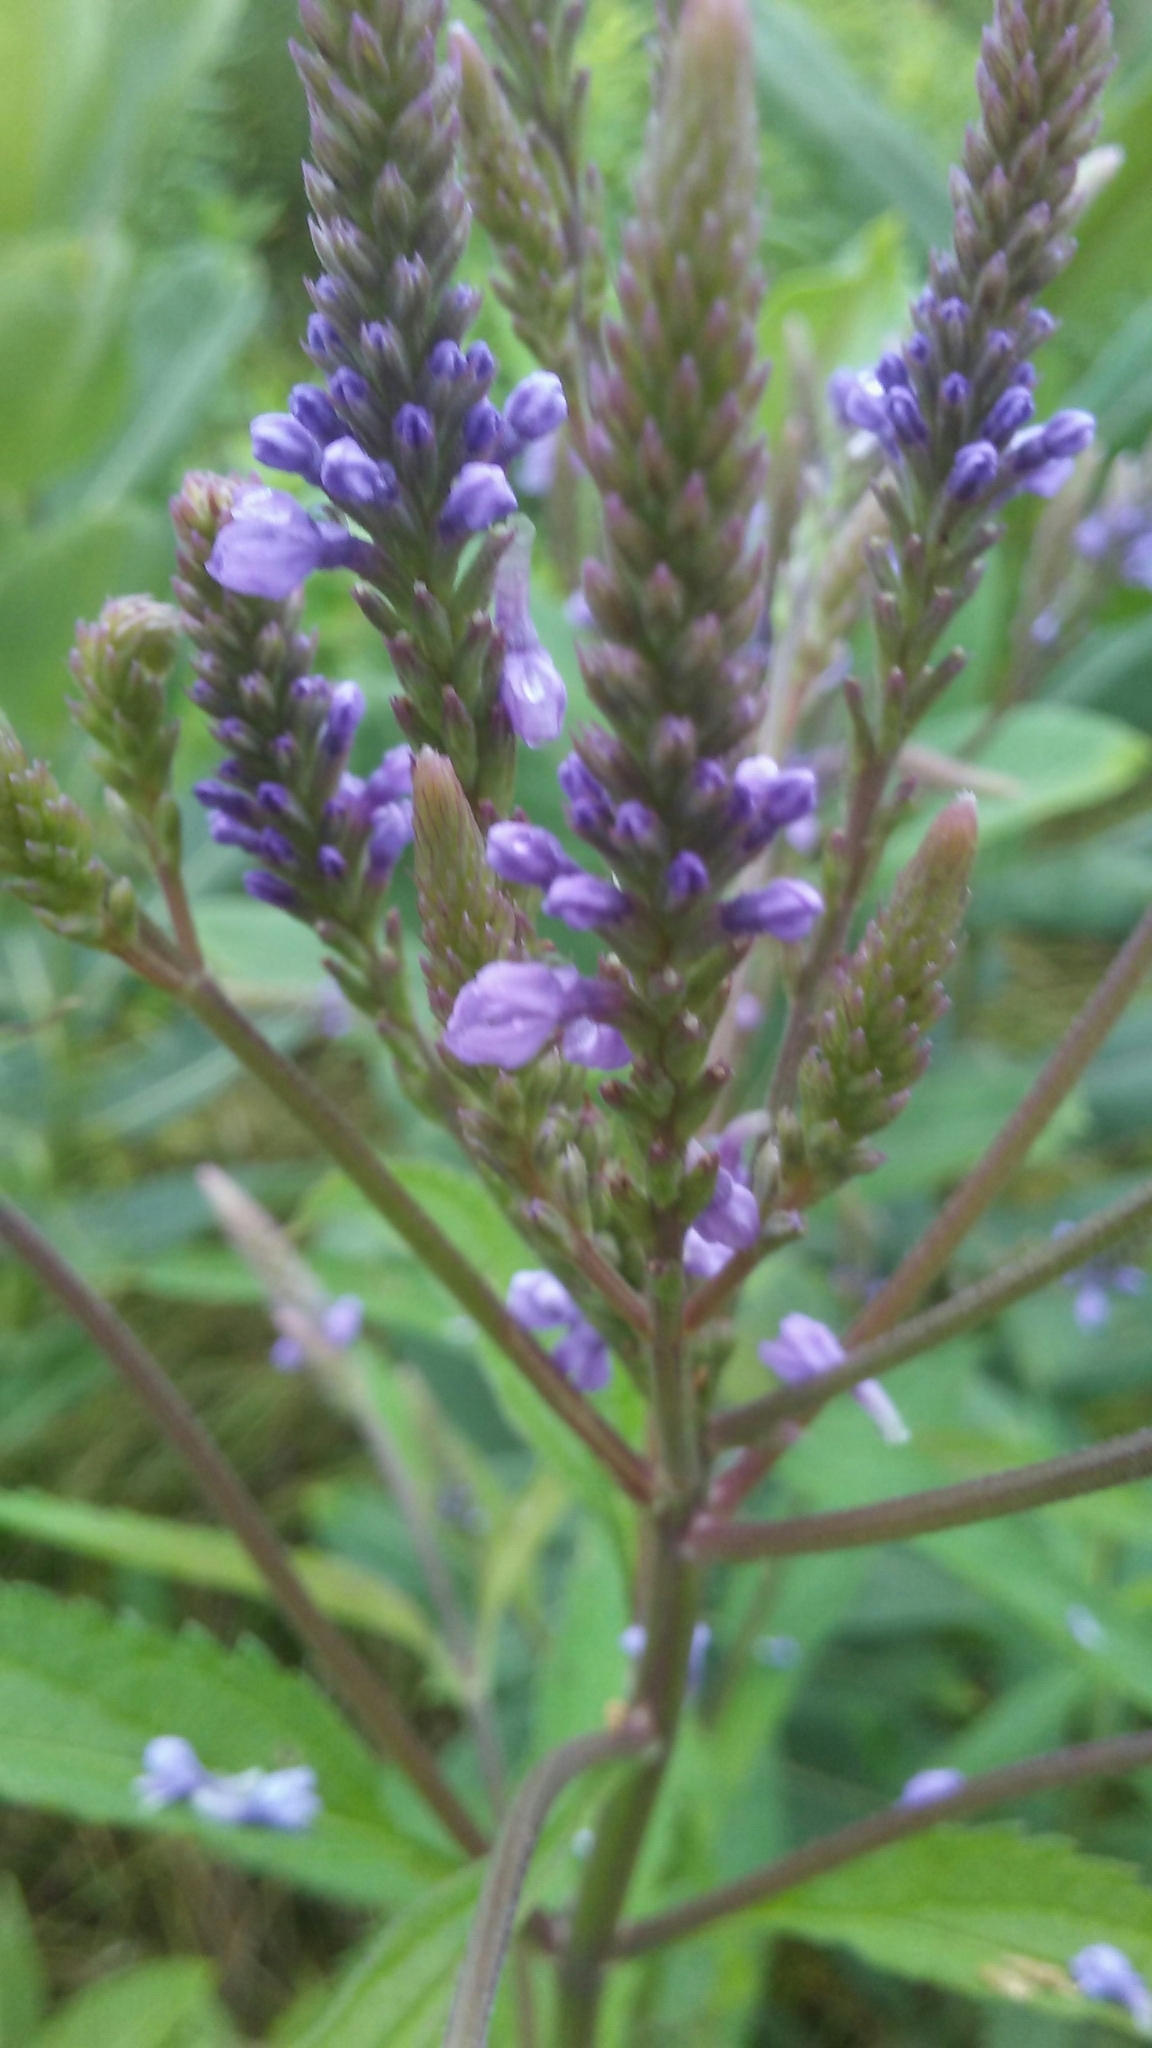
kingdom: Plantae
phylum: Tracheophyta
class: Magnoliopsida
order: Lamiales
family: Verbenaceae
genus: Verbena
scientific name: Verbena hastata
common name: American blue vervain
